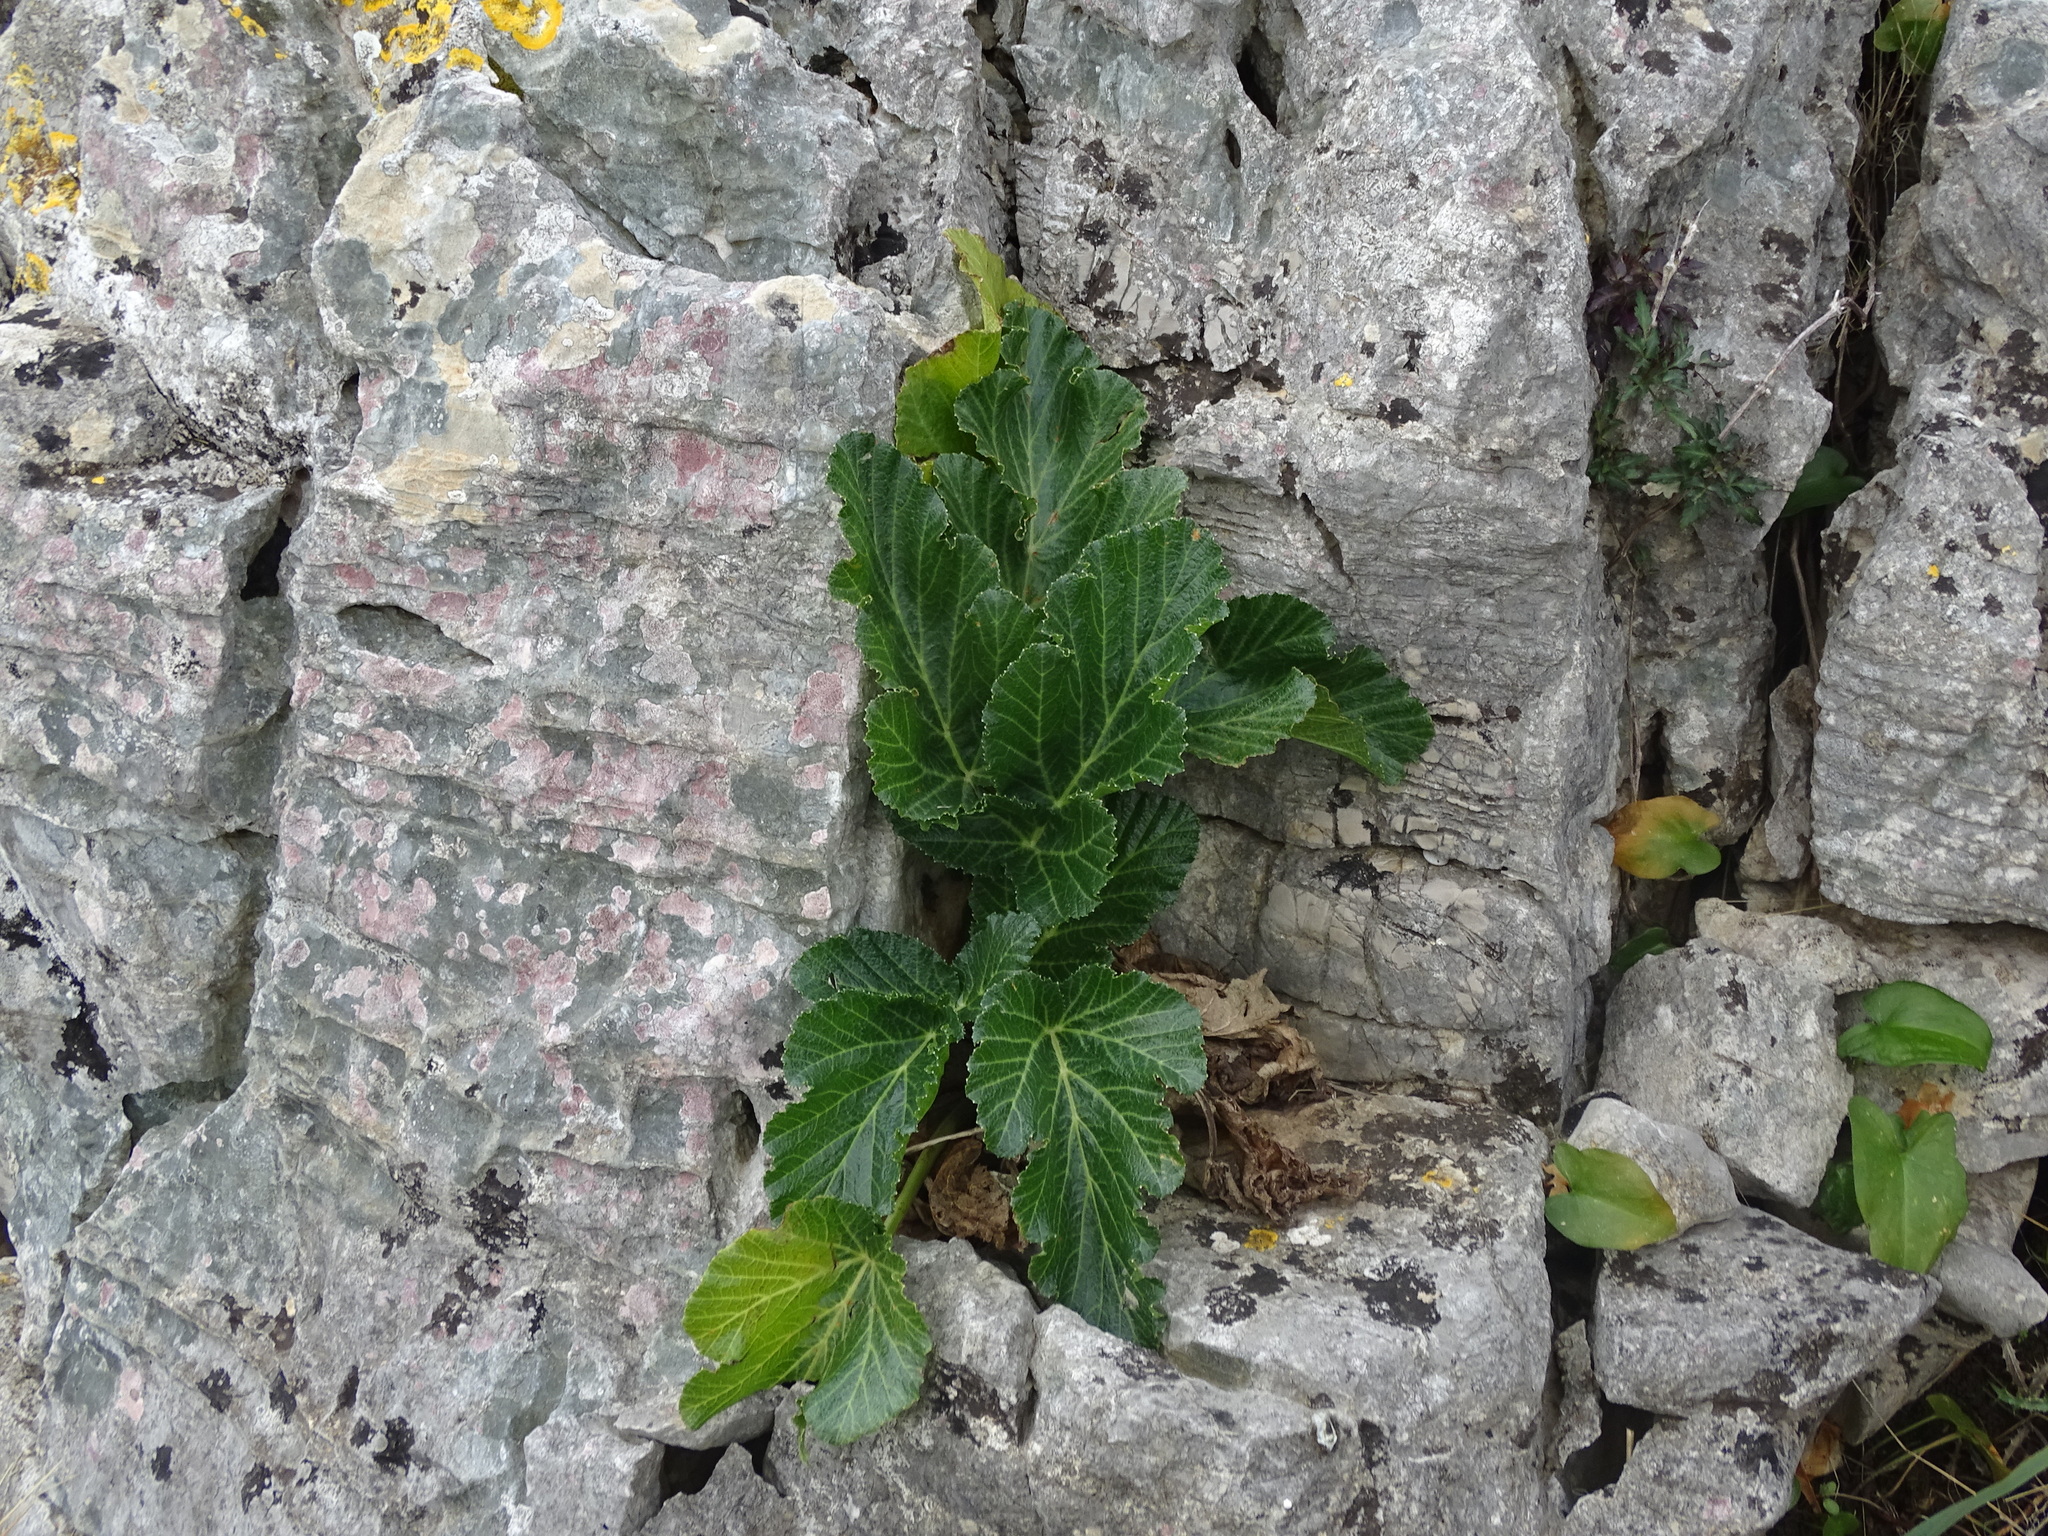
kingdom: Plantae
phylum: Tracheophyta
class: Magnoliopsida
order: Apiales
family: Apiaceae
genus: Pastinaca
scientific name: Pastinaca lucida
